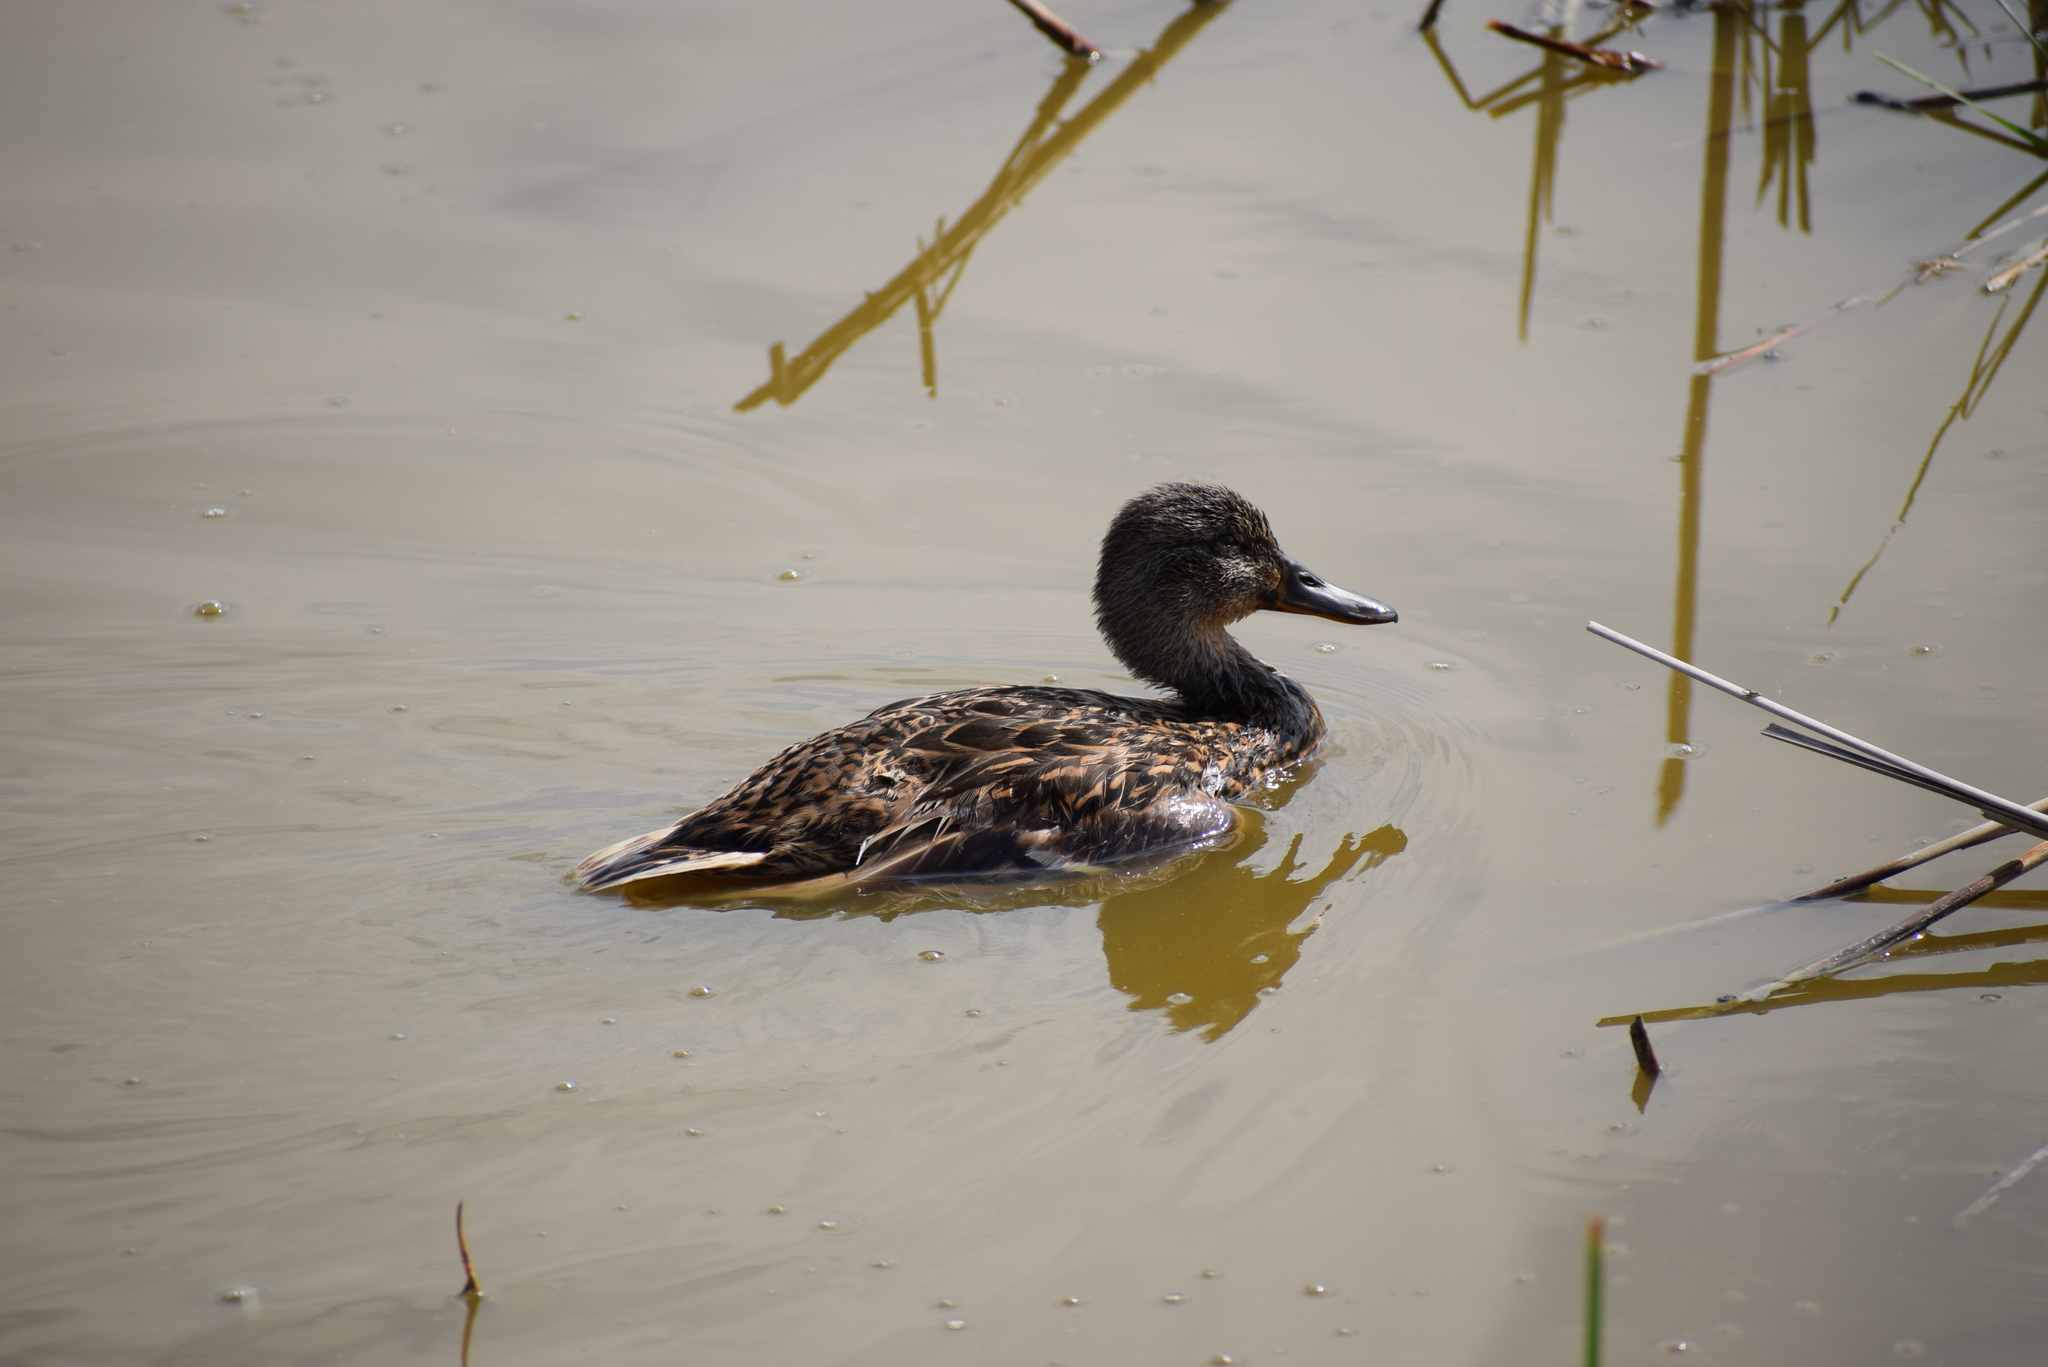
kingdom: Animalia
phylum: Chordata
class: Aves
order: Anseriformes
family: Anatidae
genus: Anas
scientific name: Anas platyrhynchos
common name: Mallard
